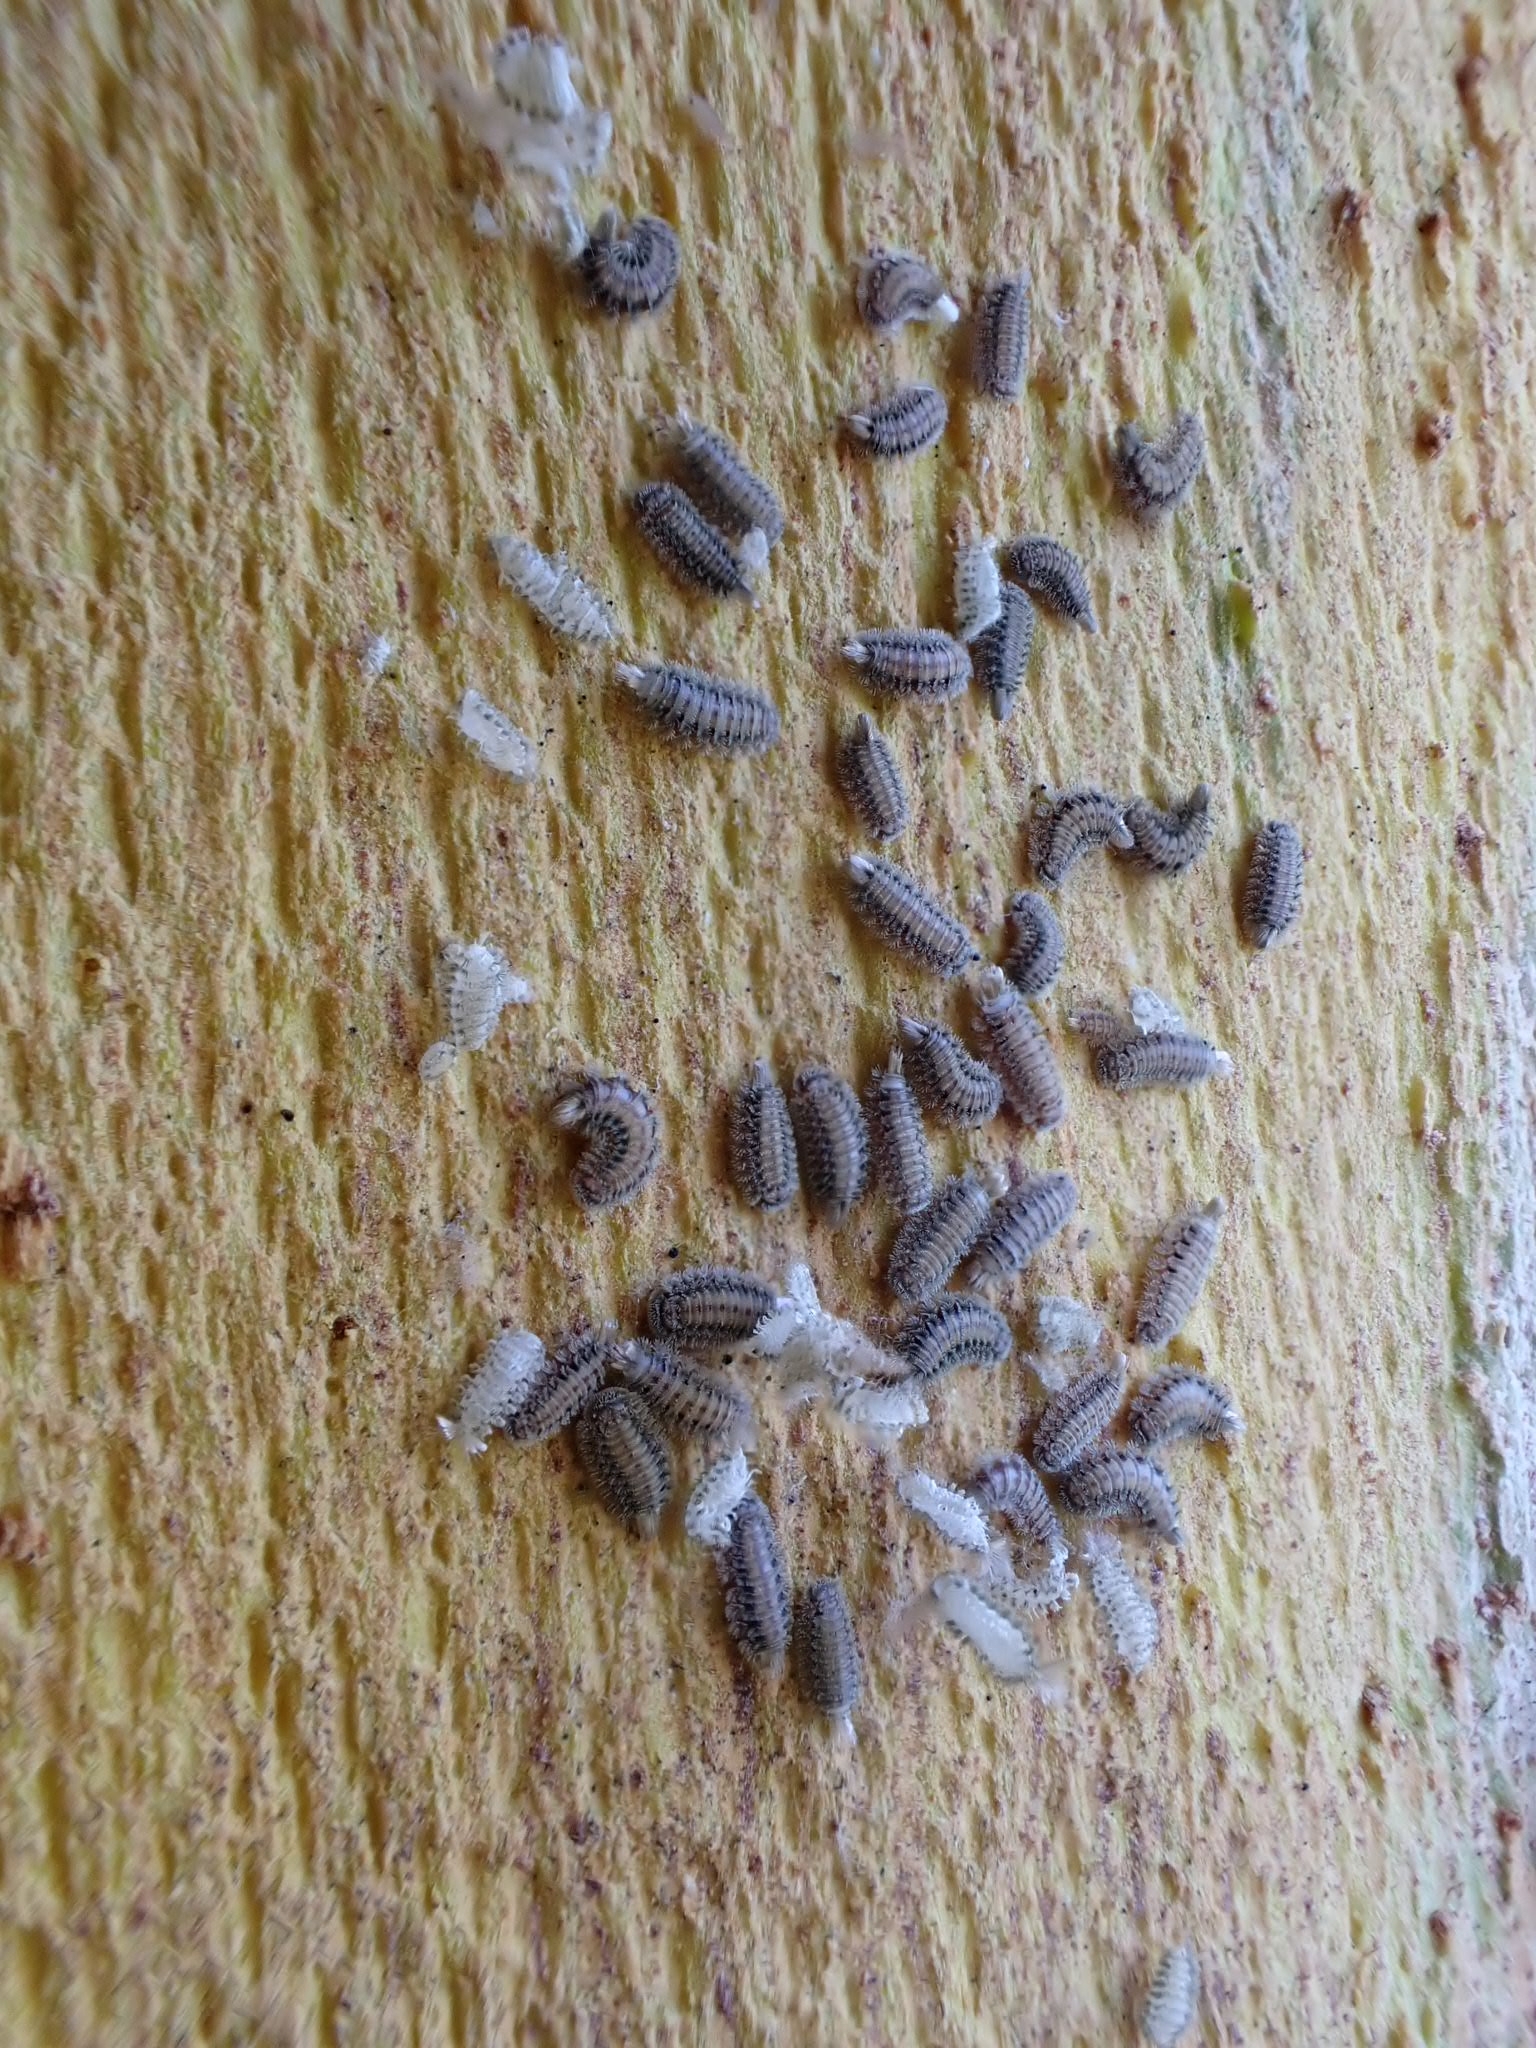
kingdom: Animalia
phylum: Arthropoda
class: Diplopoda
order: Polyxenida
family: Polyxenidae
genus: Polyxenus
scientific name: Polyxenus lagurus
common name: Bristly millipede
